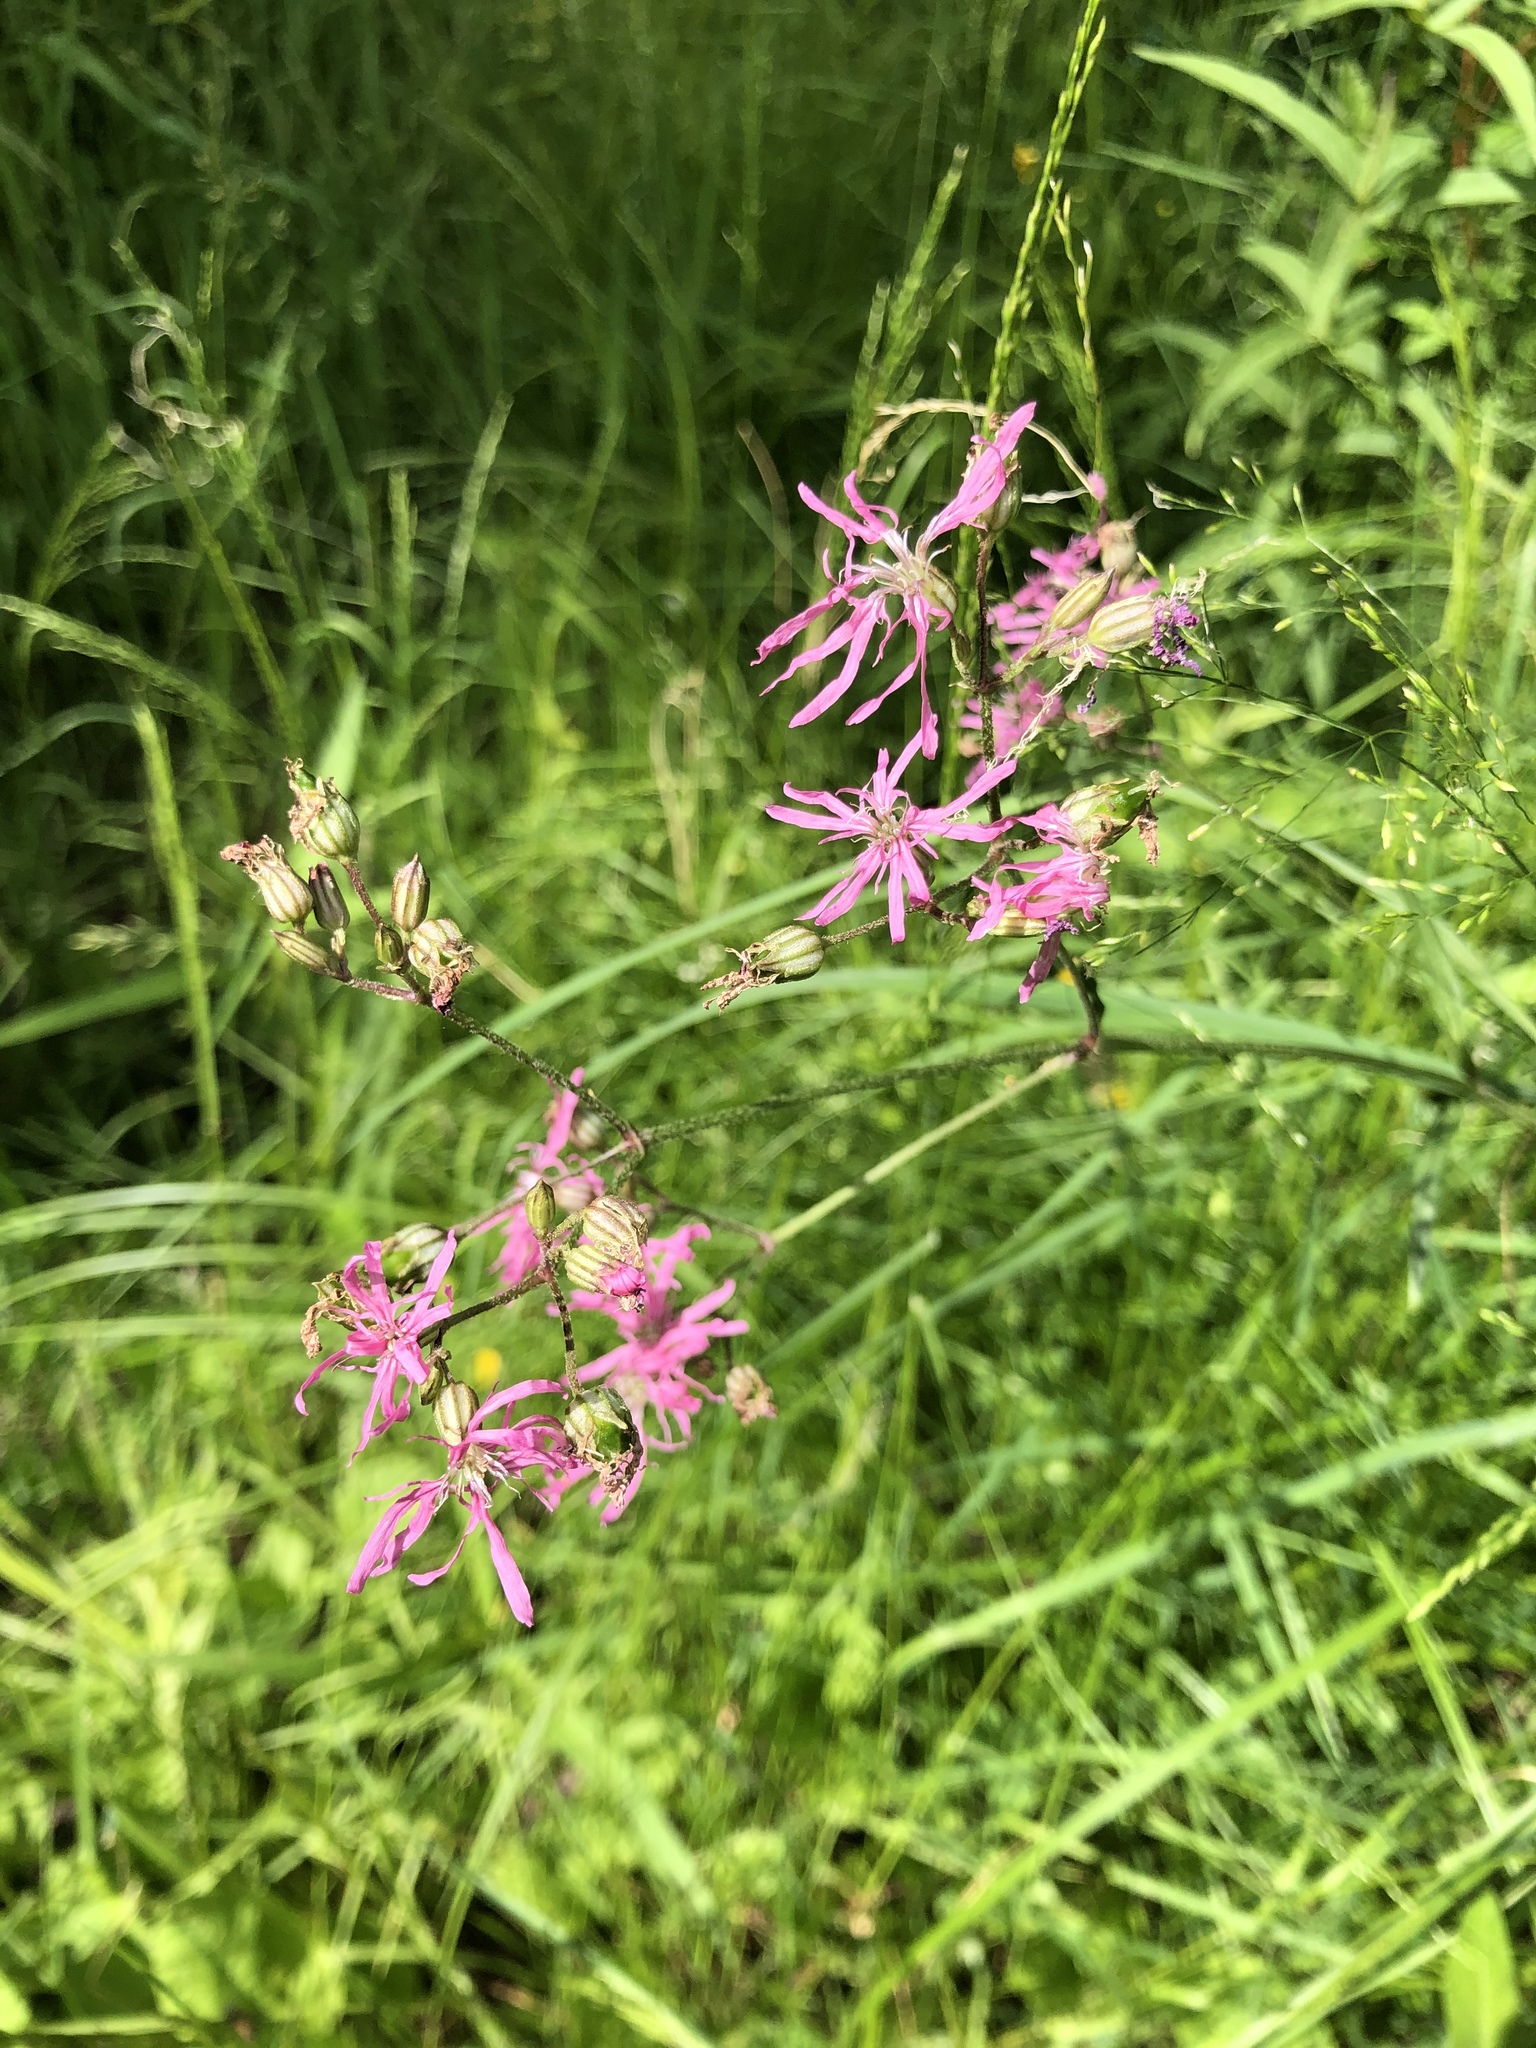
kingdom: Plantae
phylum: Tracheophyta
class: Magnoliopsida
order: Caryophyllales
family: Caryophyllaceae
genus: Silene
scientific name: Silene flos-cuculi
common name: Ragged-robin
